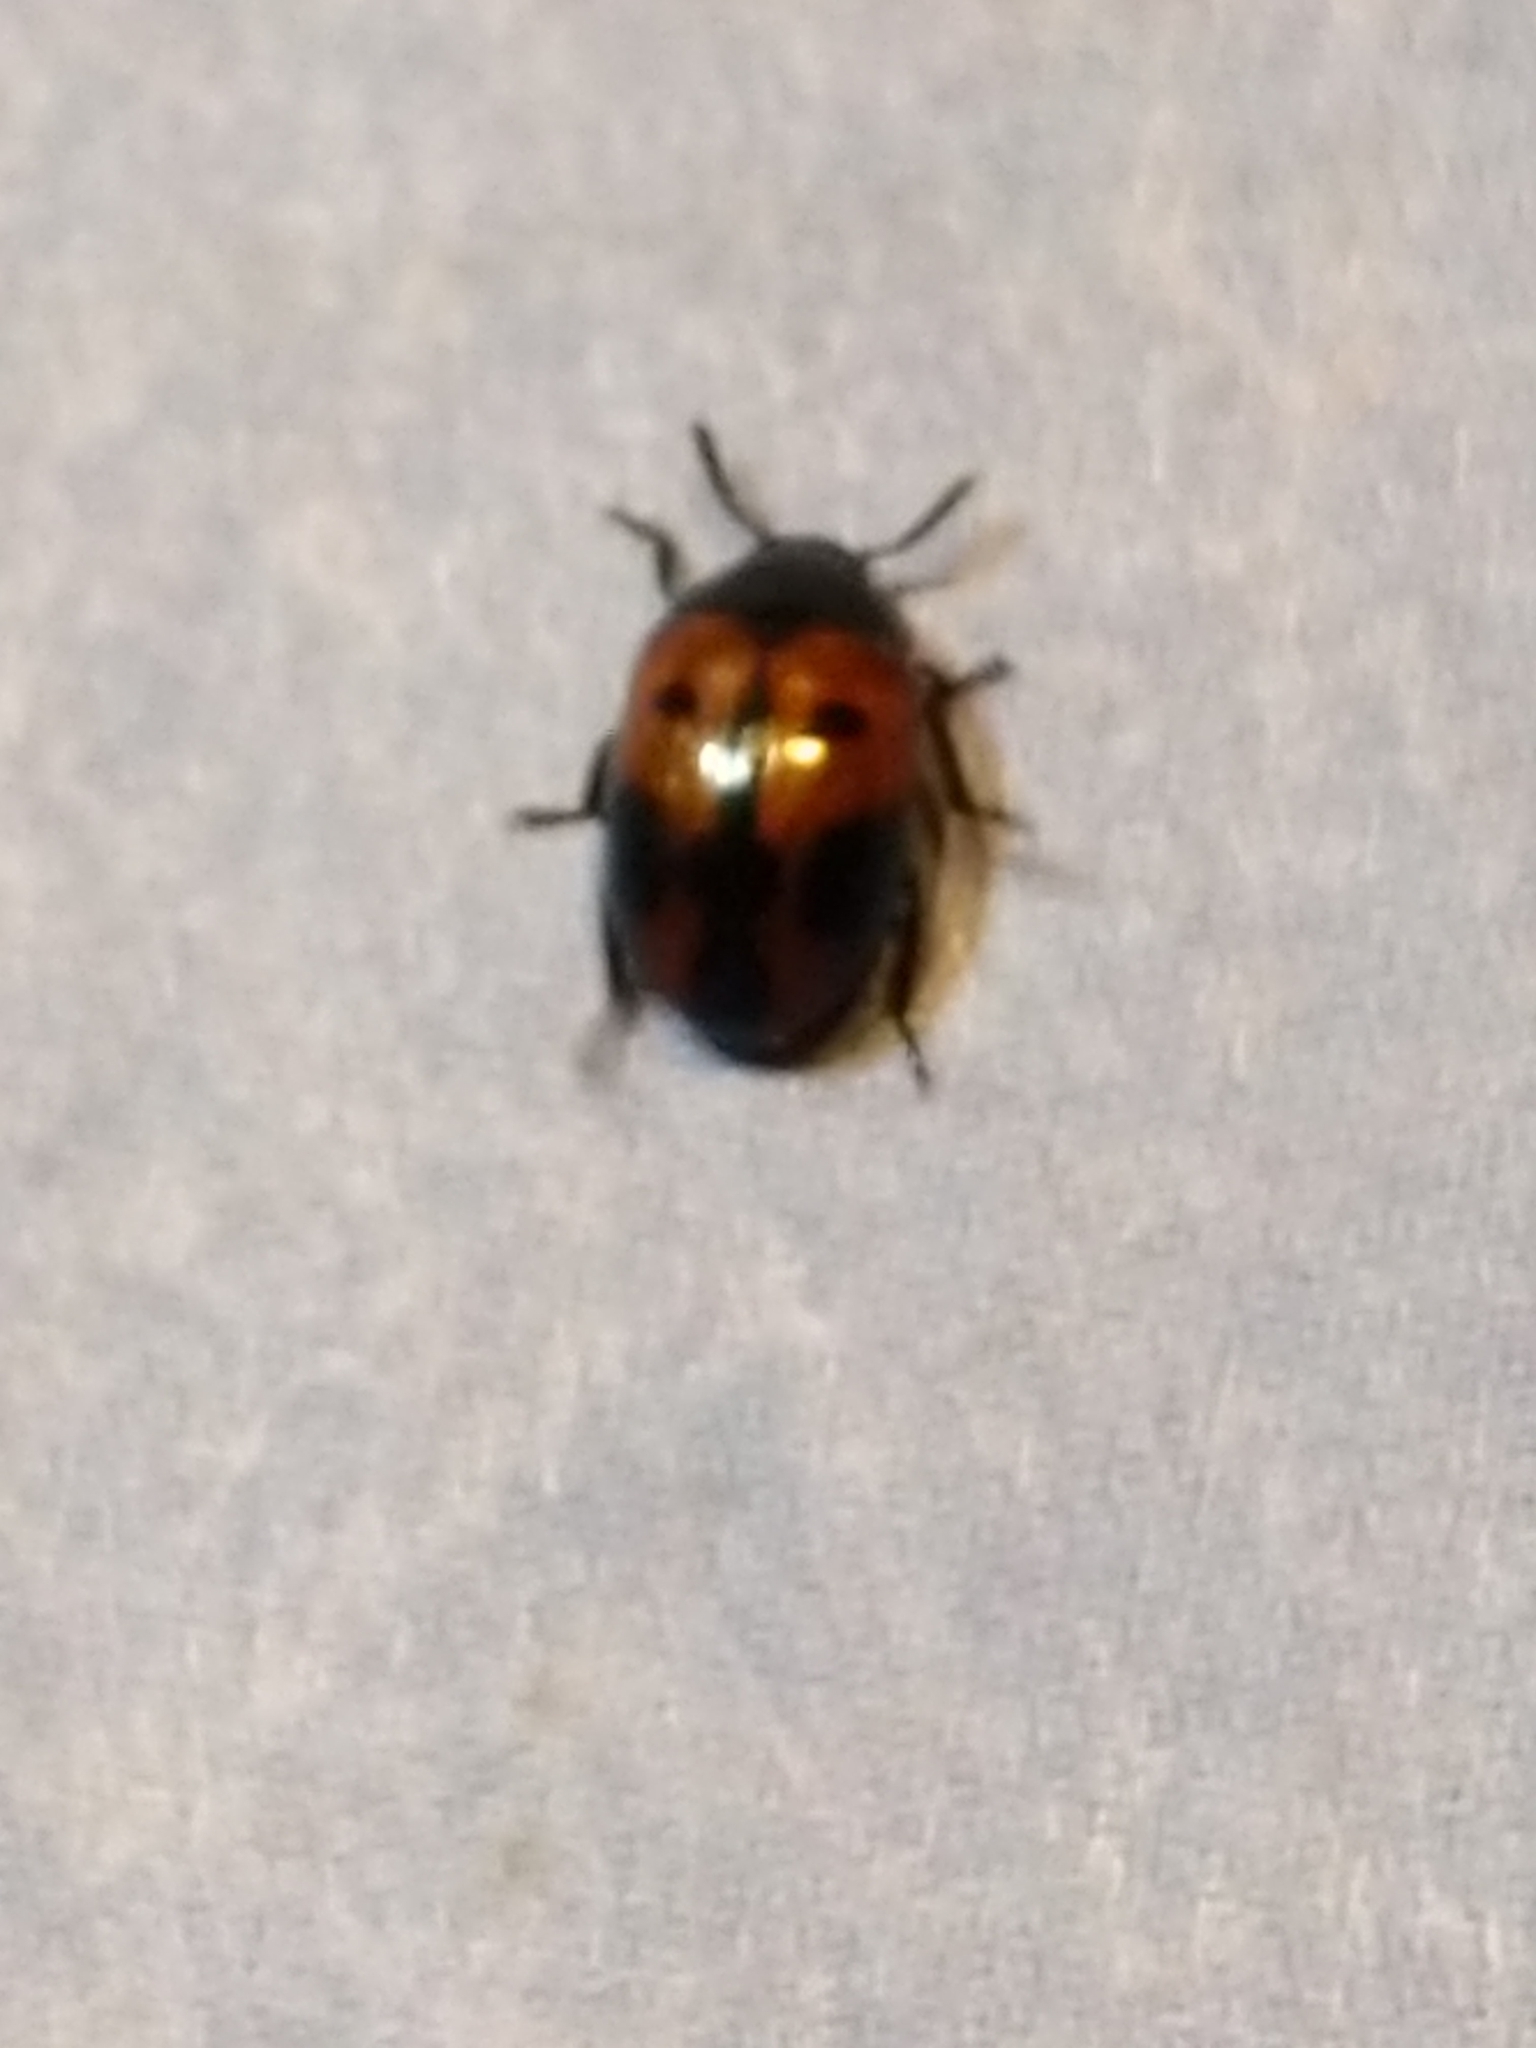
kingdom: Animalia
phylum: Arthropoda
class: Insecta
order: Coleoptera
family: Tenebrionidae
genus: Diaperis
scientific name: Diaperis maculata
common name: Darkling beetle
